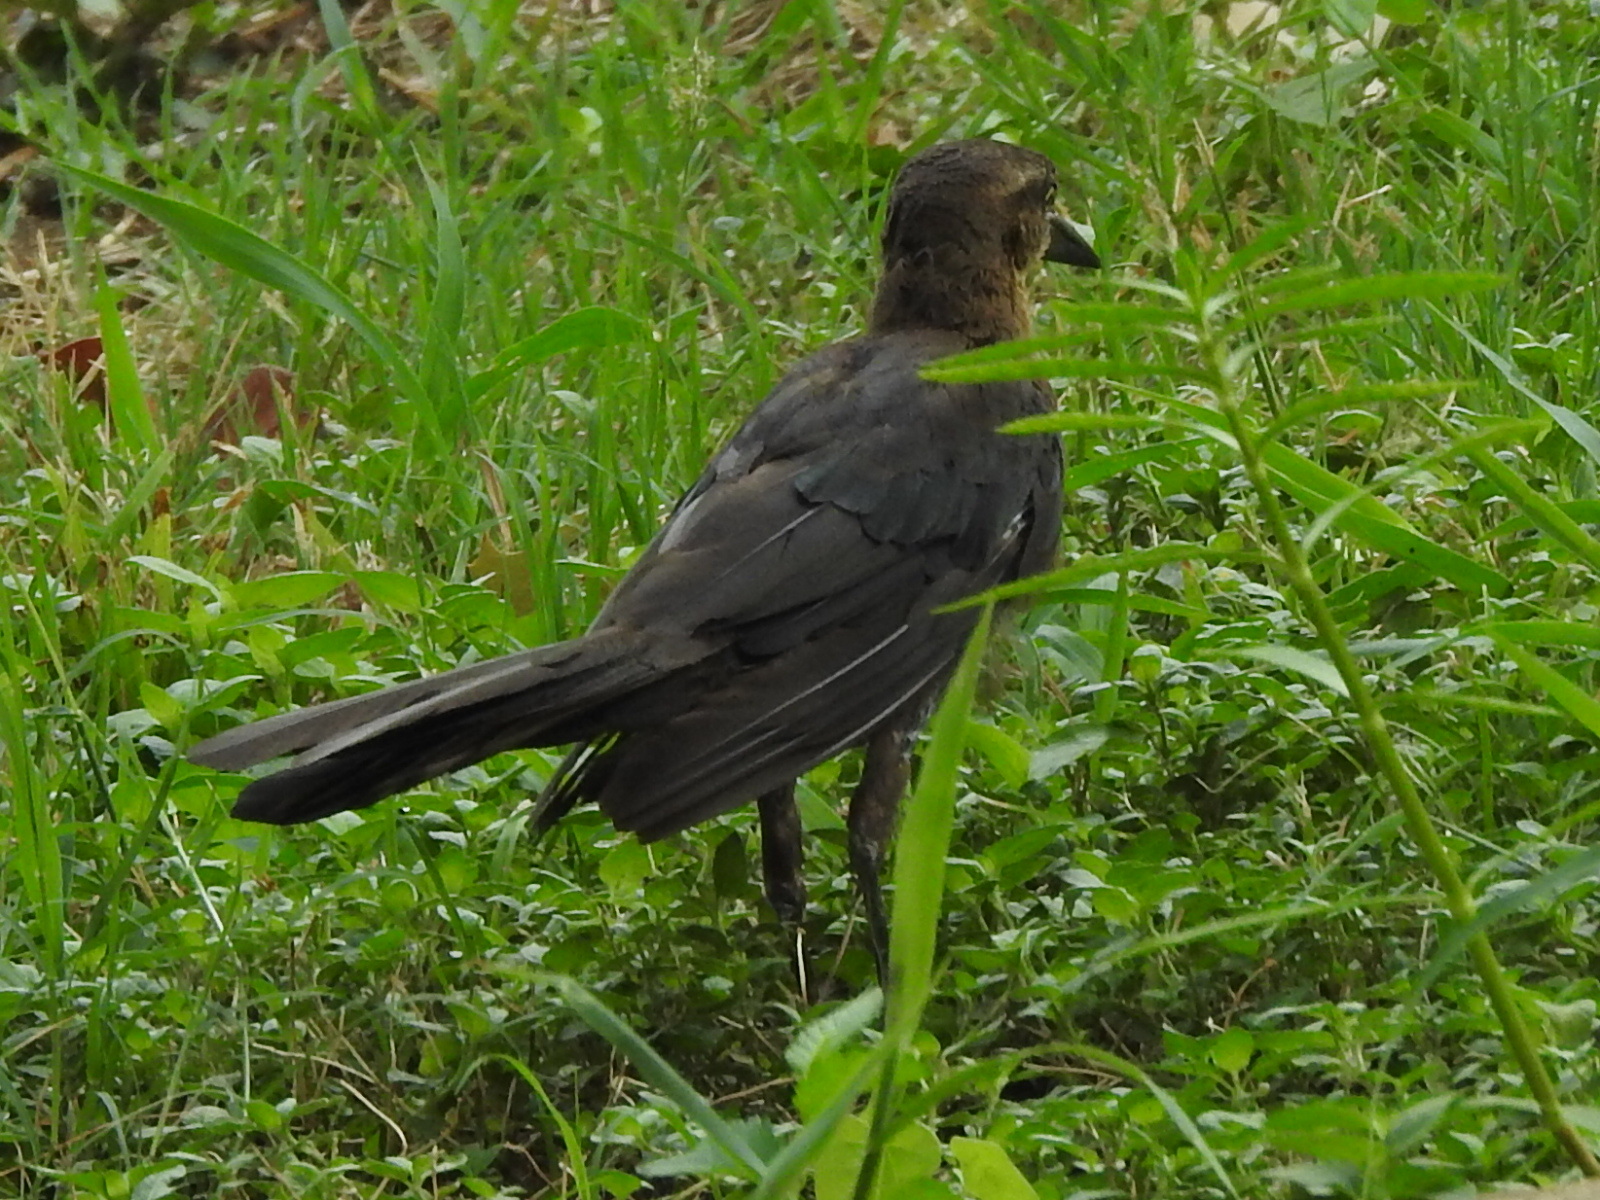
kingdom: Animalia
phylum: Chordata
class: Aves
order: Passeriformes
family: Icteridae
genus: Quiscalus
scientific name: Quiscalus mexicanus
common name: Great-tailed grackle
